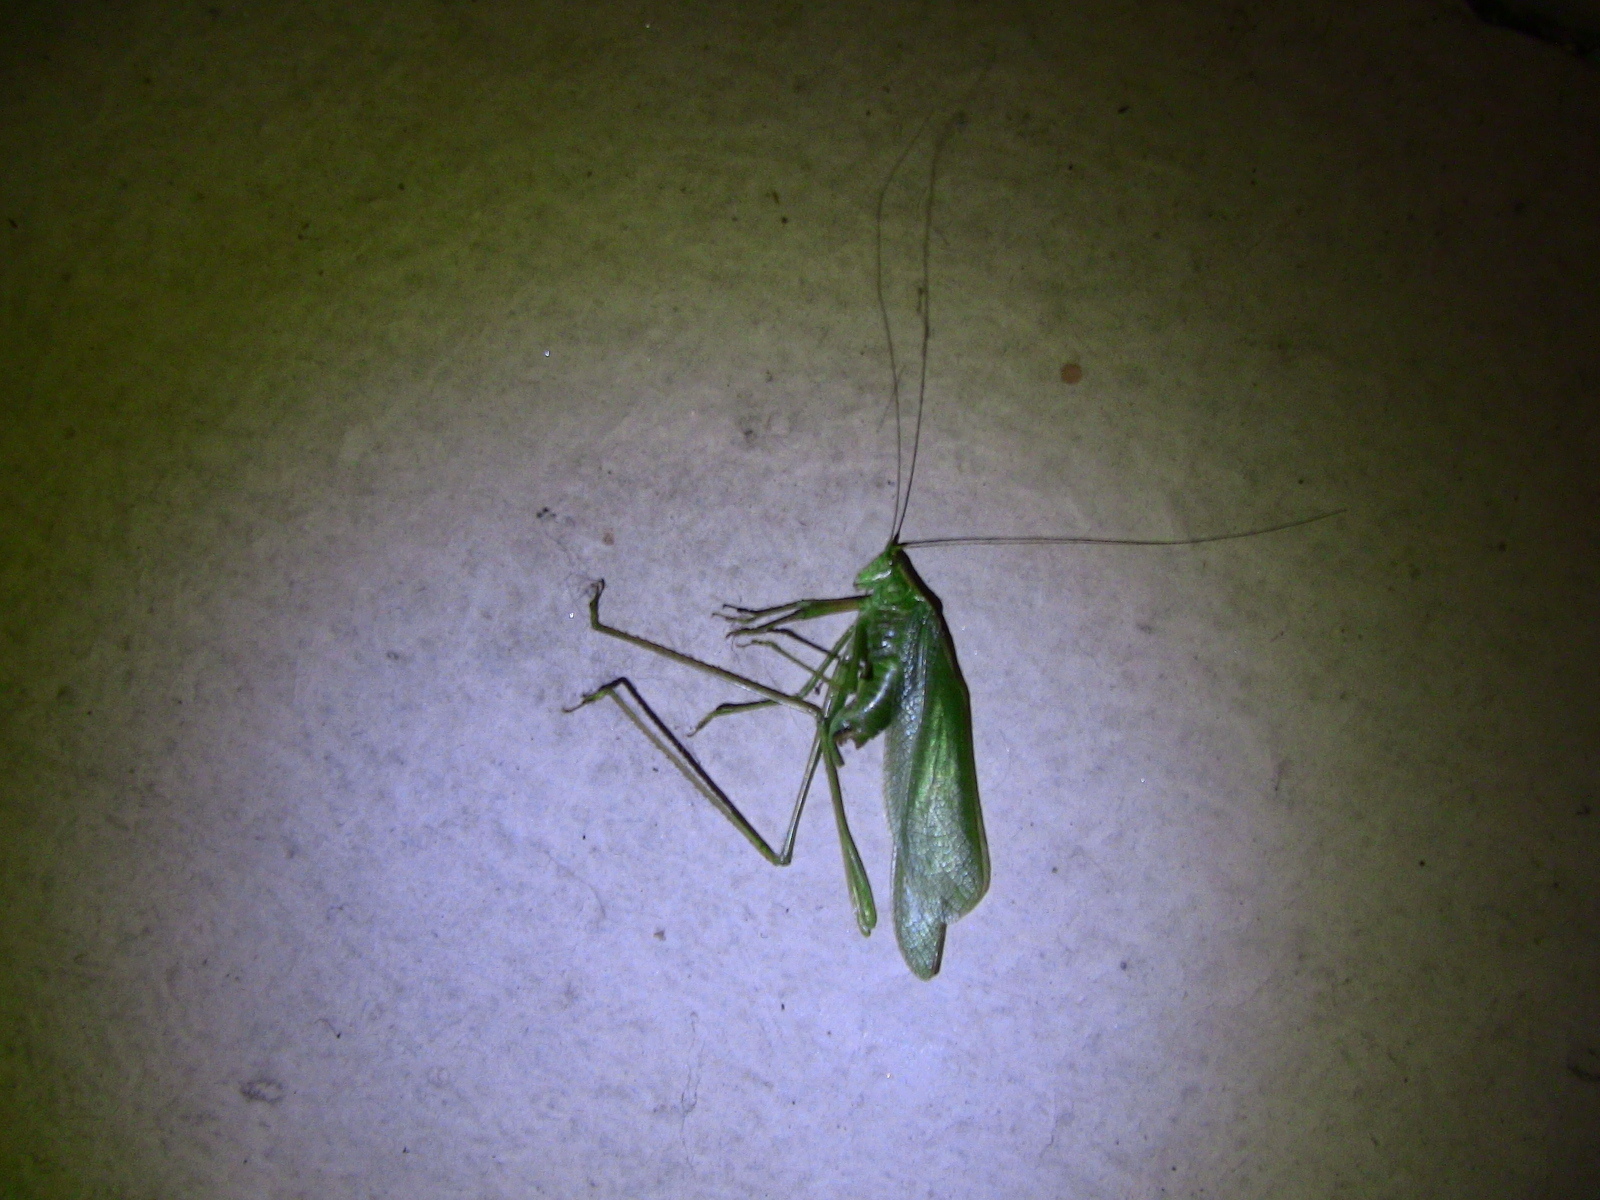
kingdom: Animalia
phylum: Arthropoda
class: Insecta
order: Orthoptera
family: Tettigoniidae
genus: Scudderia
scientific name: Scudderia septentrionalis
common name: Northern bush-katydid
